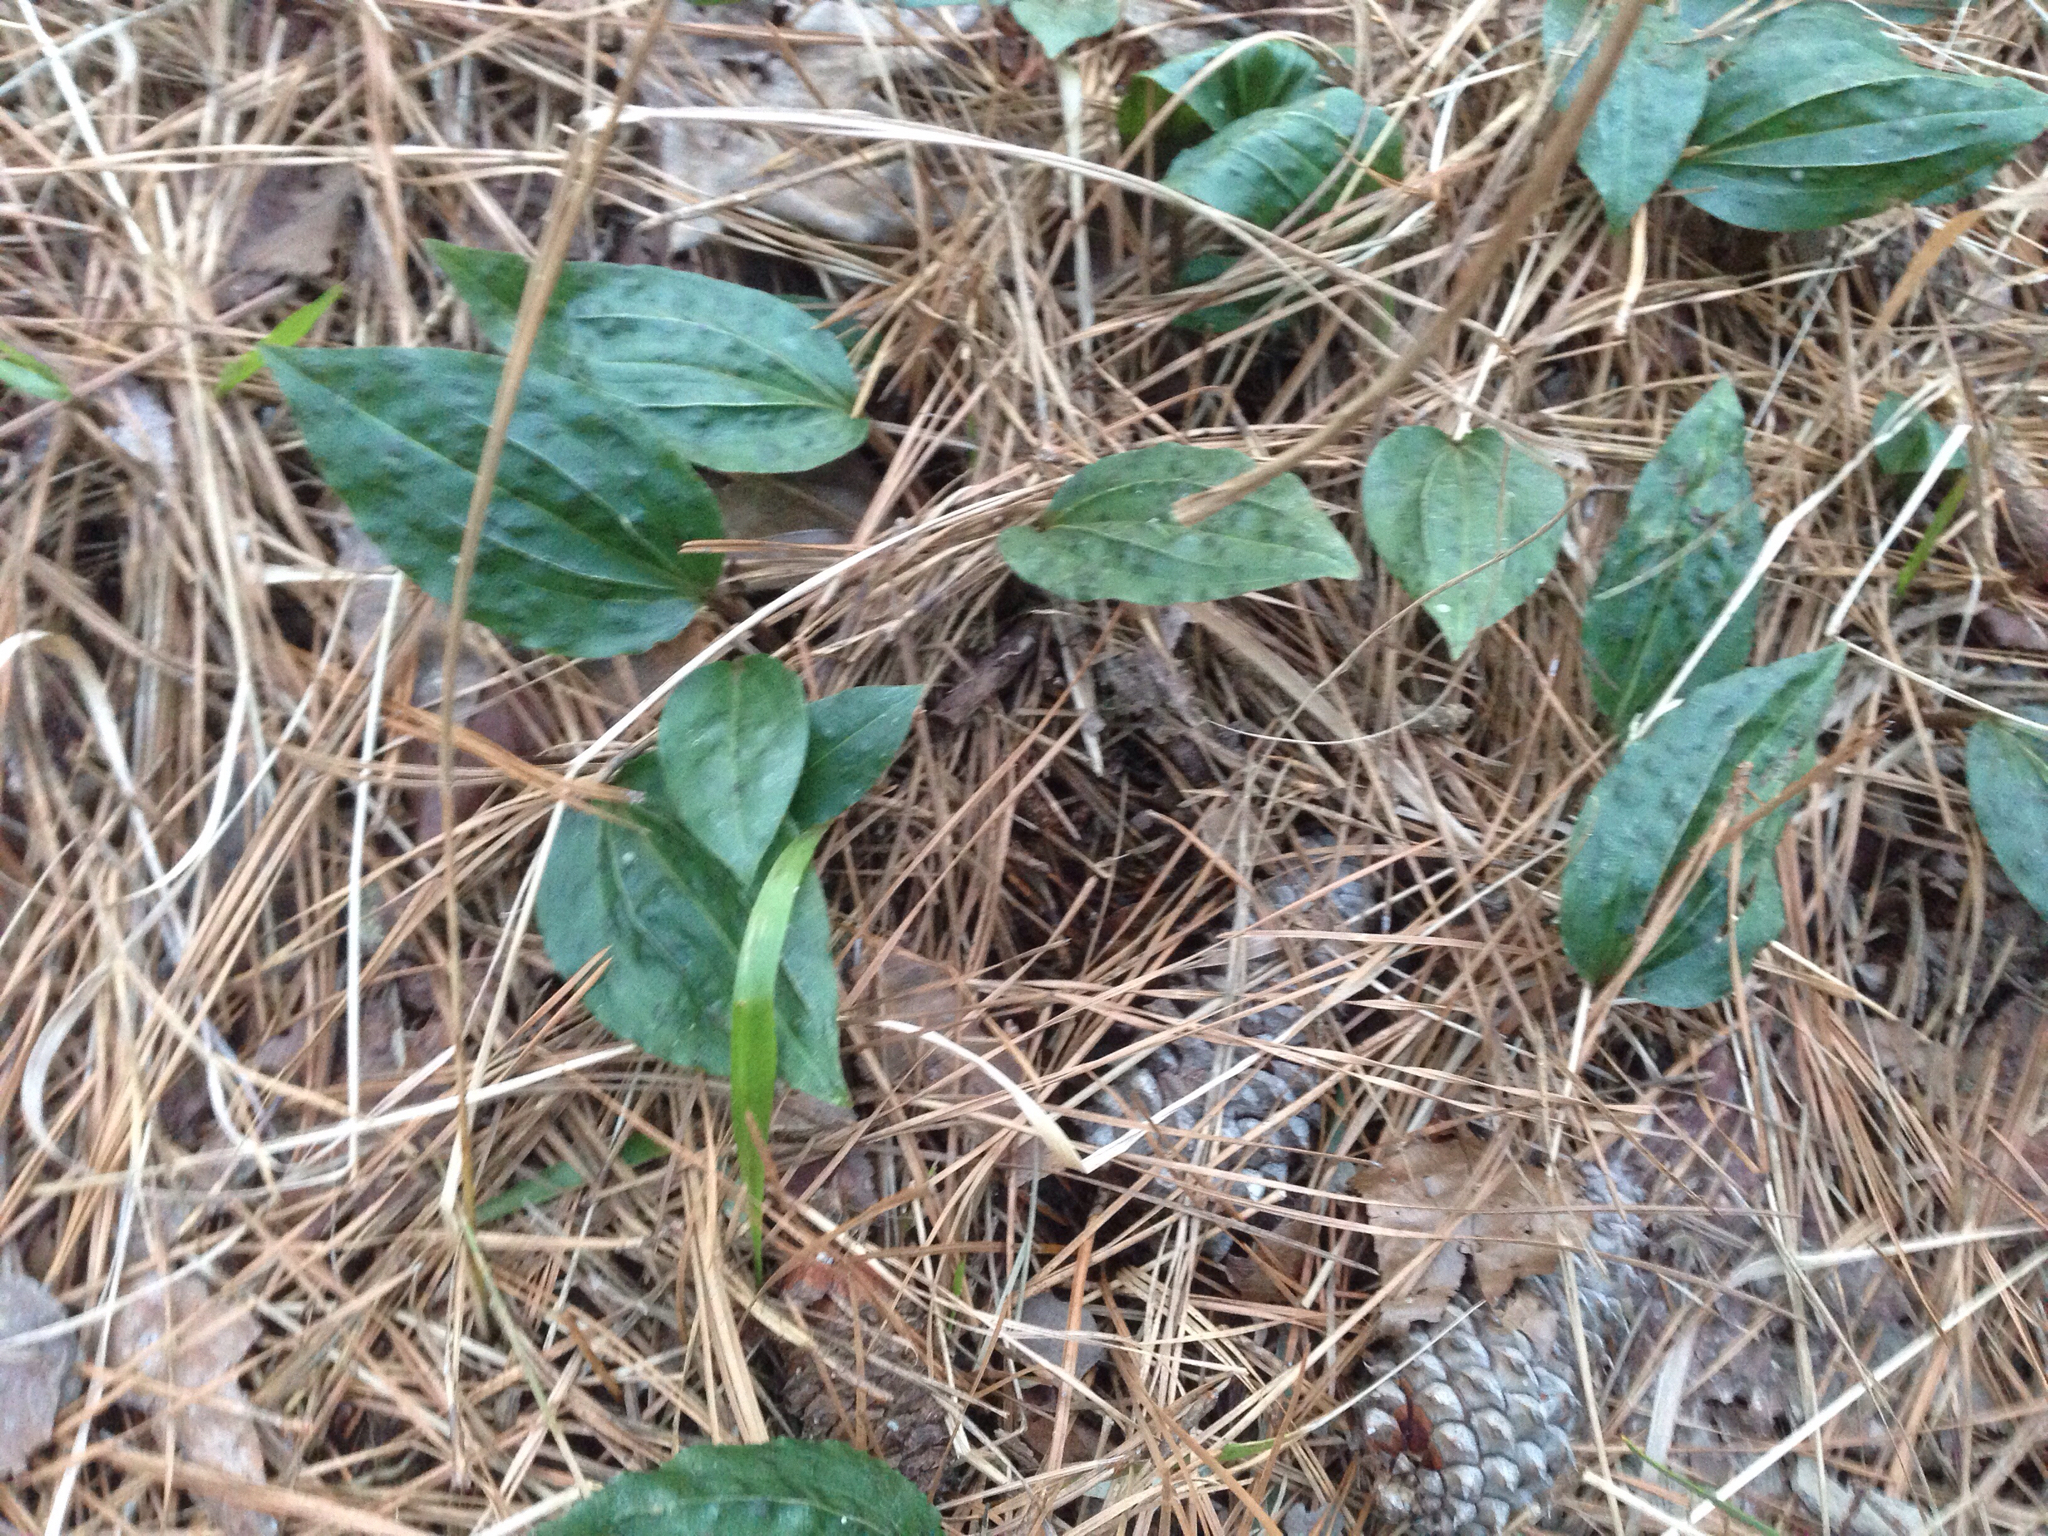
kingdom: Plantae
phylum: Tracheophyta
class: Liliopsida
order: Asparagales
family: Orchidaceae
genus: Tipularia
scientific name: Tipularia discolor
